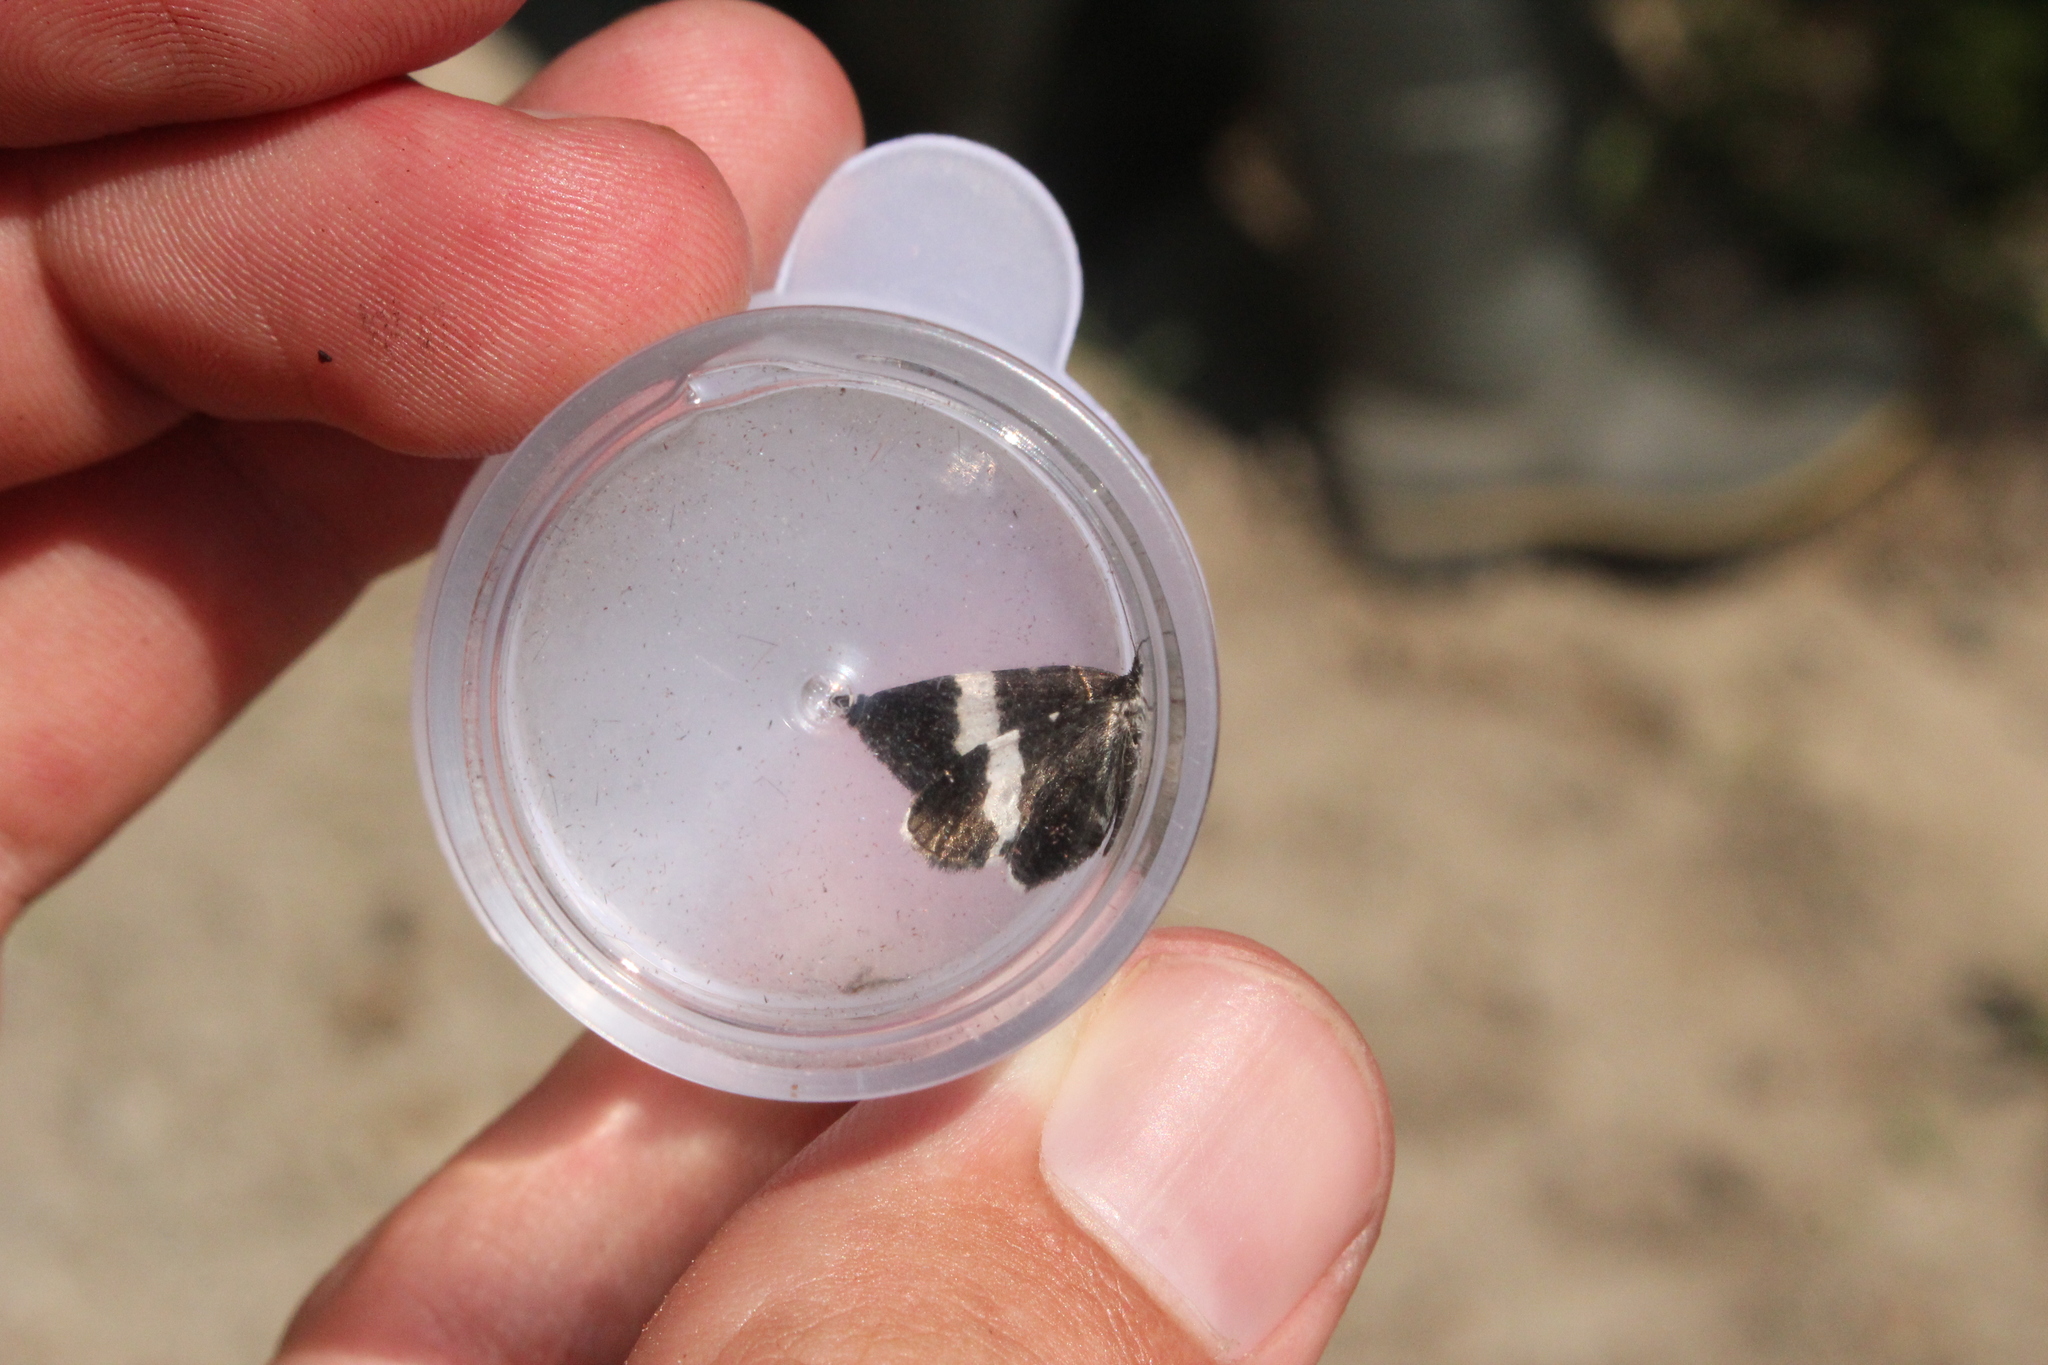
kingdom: Animalia
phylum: Arthropoda
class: Insecta
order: Lepidoptera
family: Geometridae
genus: Trichodezia
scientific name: Trichodezia albovittata
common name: White striped black
